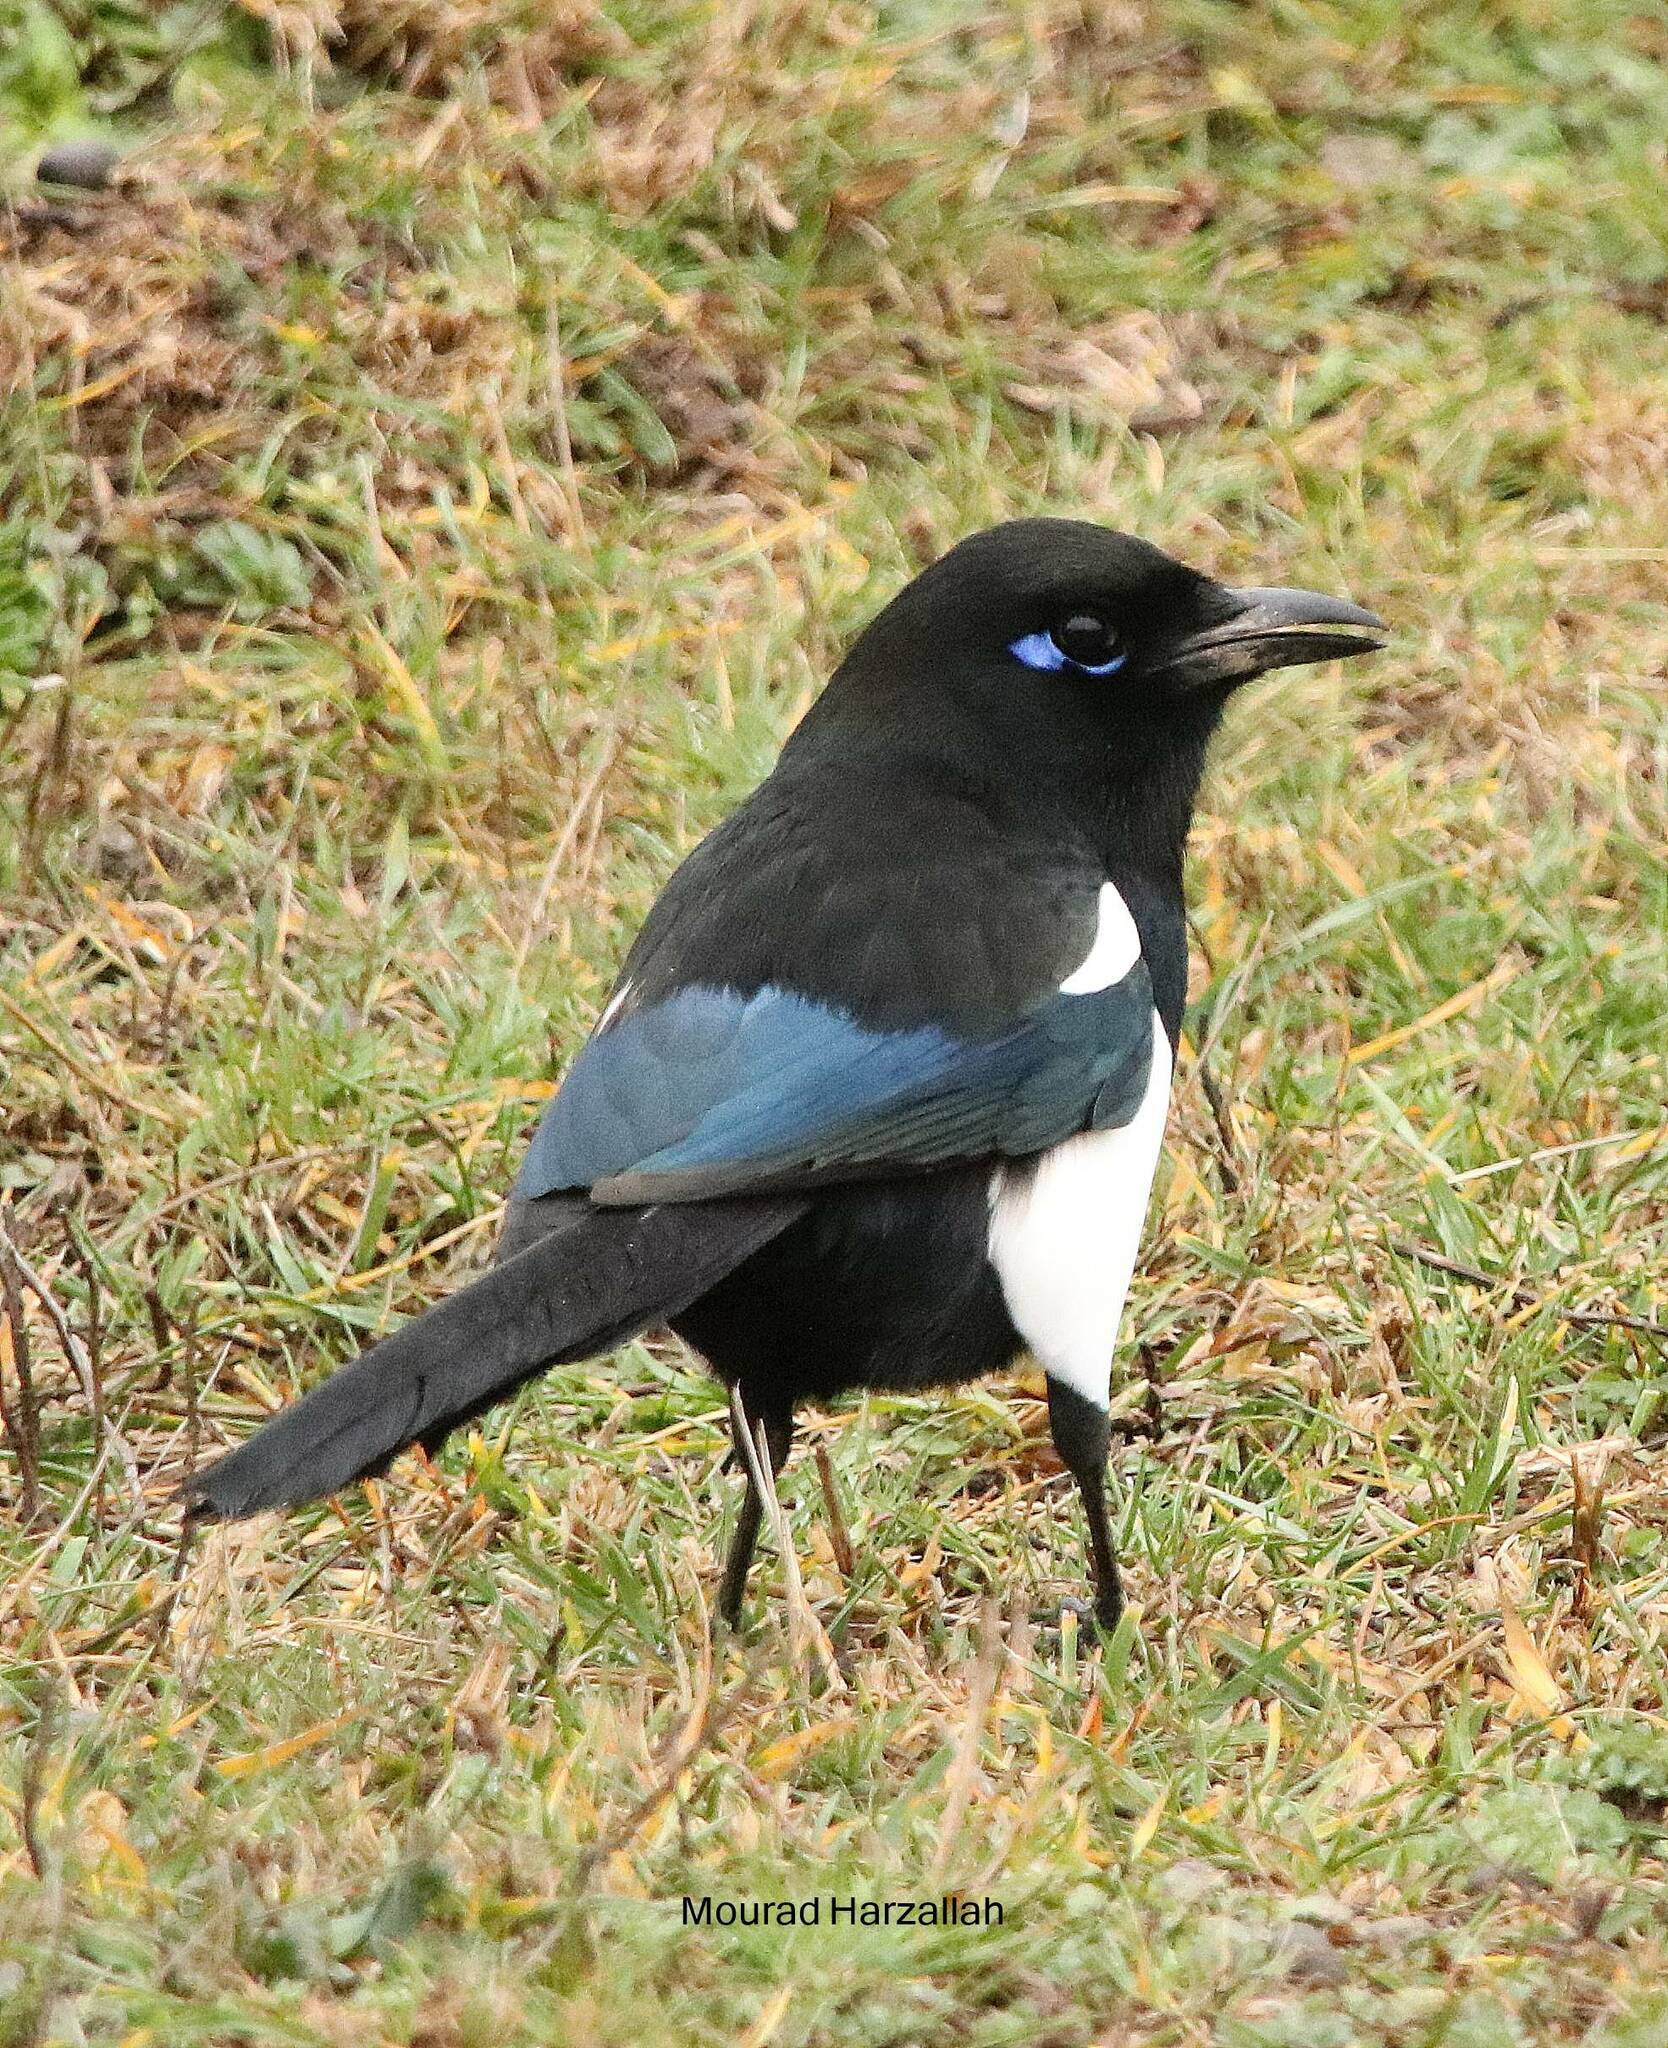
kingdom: Animalia
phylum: Chordata
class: Aves
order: Passeriformes
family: Corvidae
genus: Pica
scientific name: Pica mauritanica
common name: Maghreb magpie
